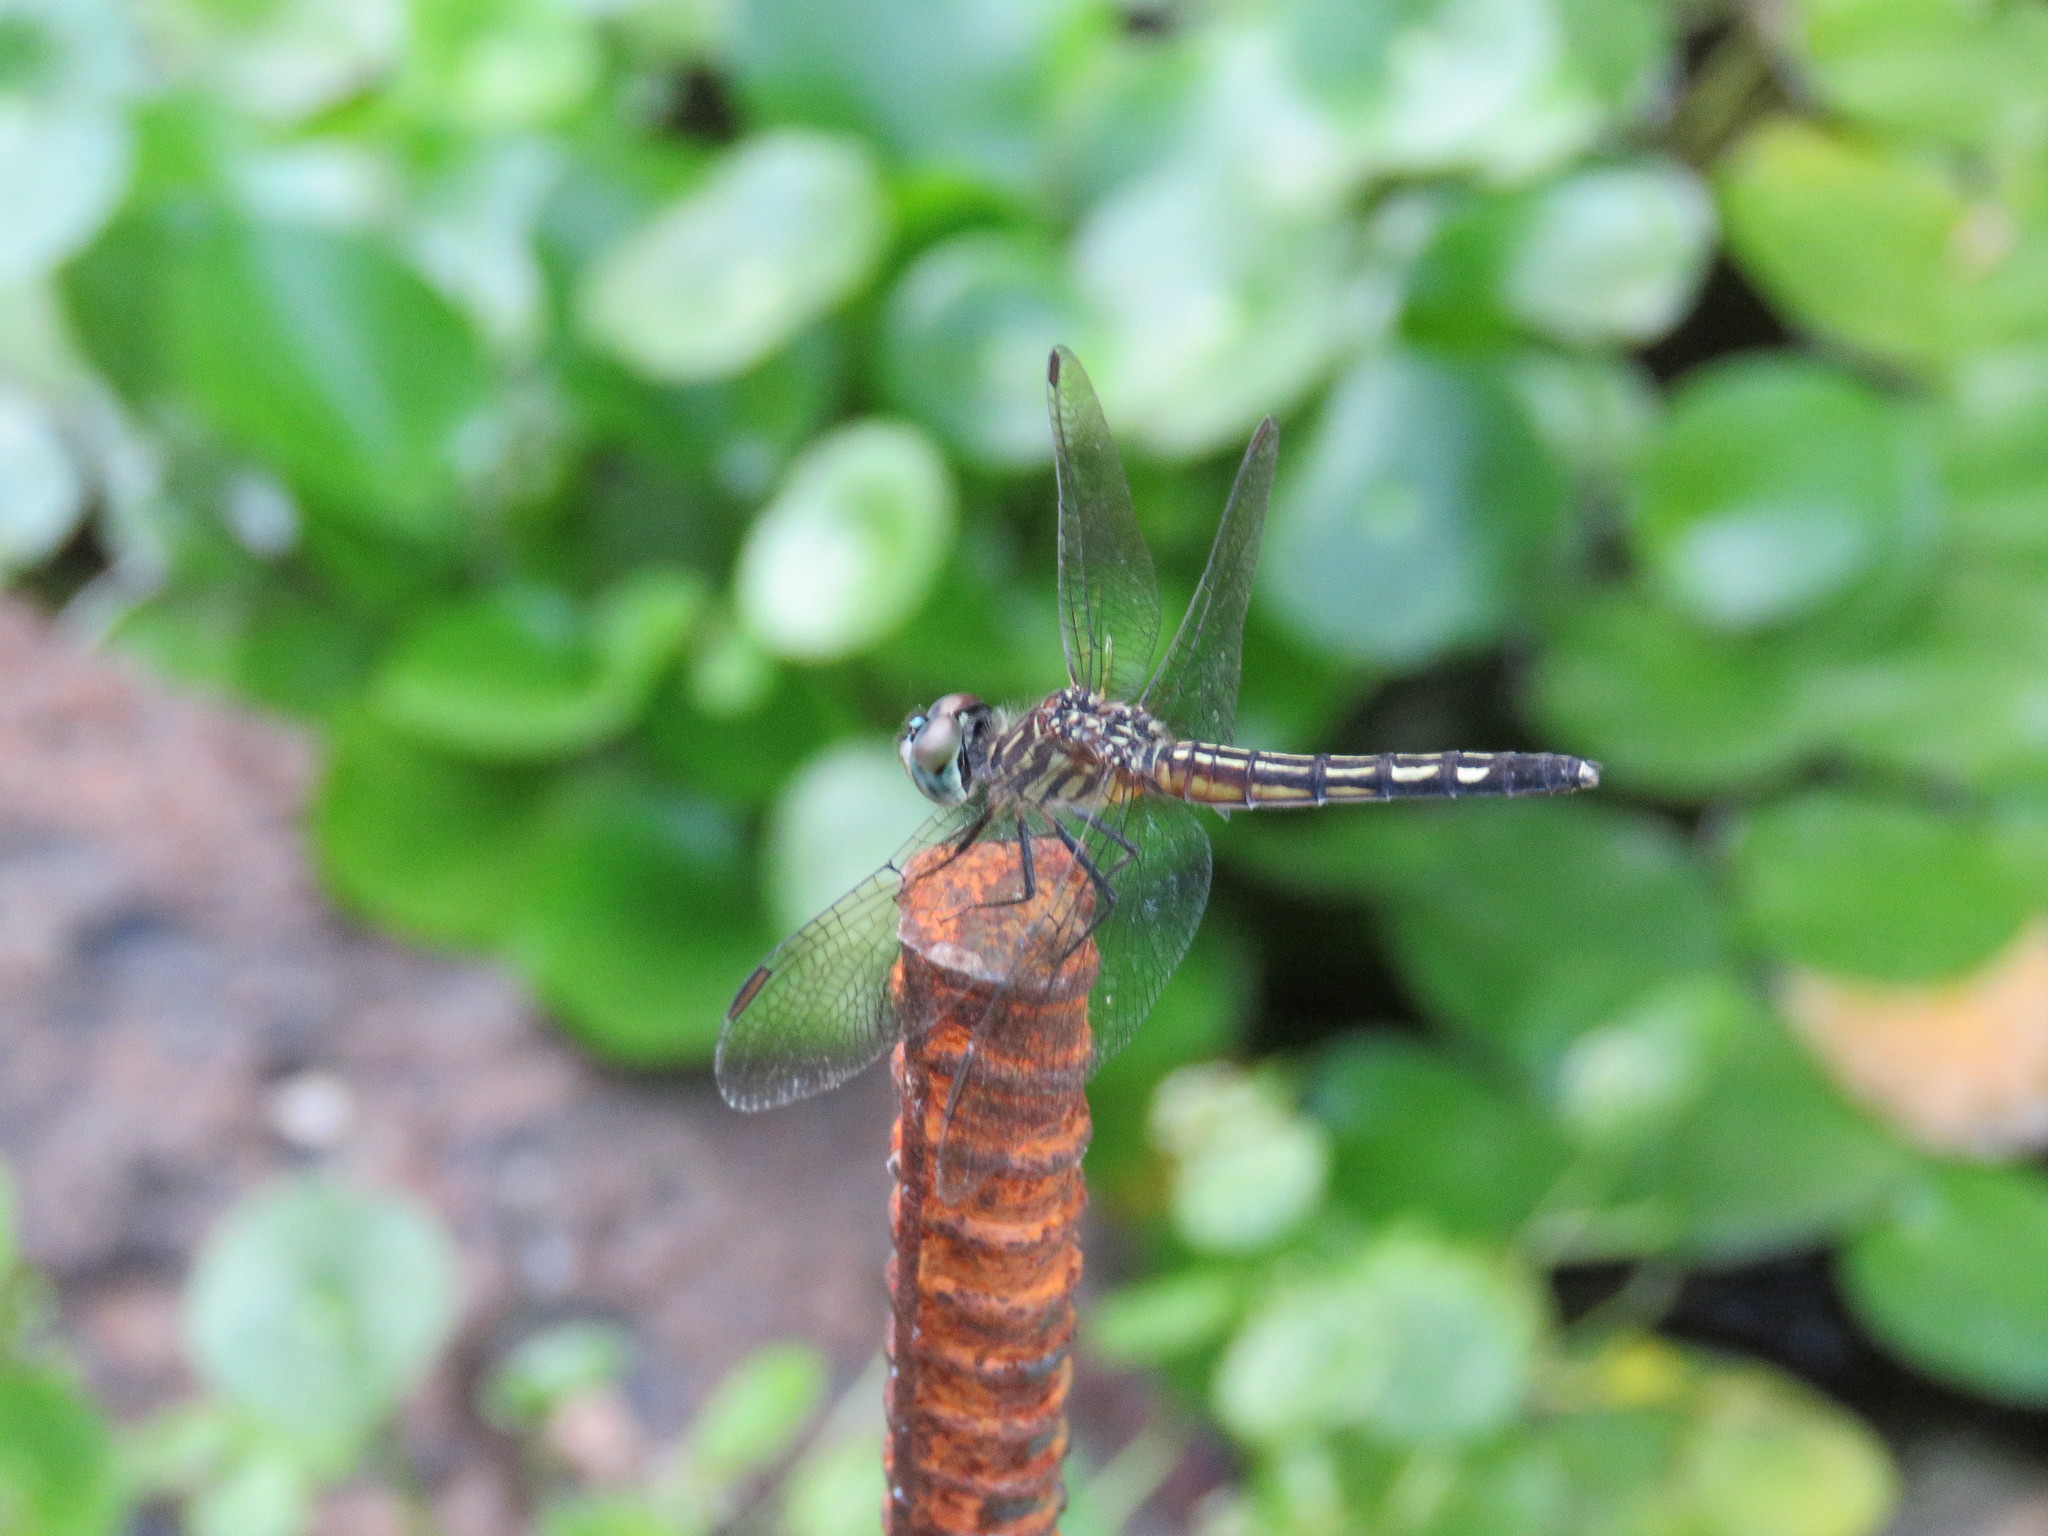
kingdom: Animalia
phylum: Arthropoda
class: Insecta
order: Odonata
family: Libellulidae
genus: Pachydiplax
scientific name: Pachydiplax longipennis
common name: Blue dasher
